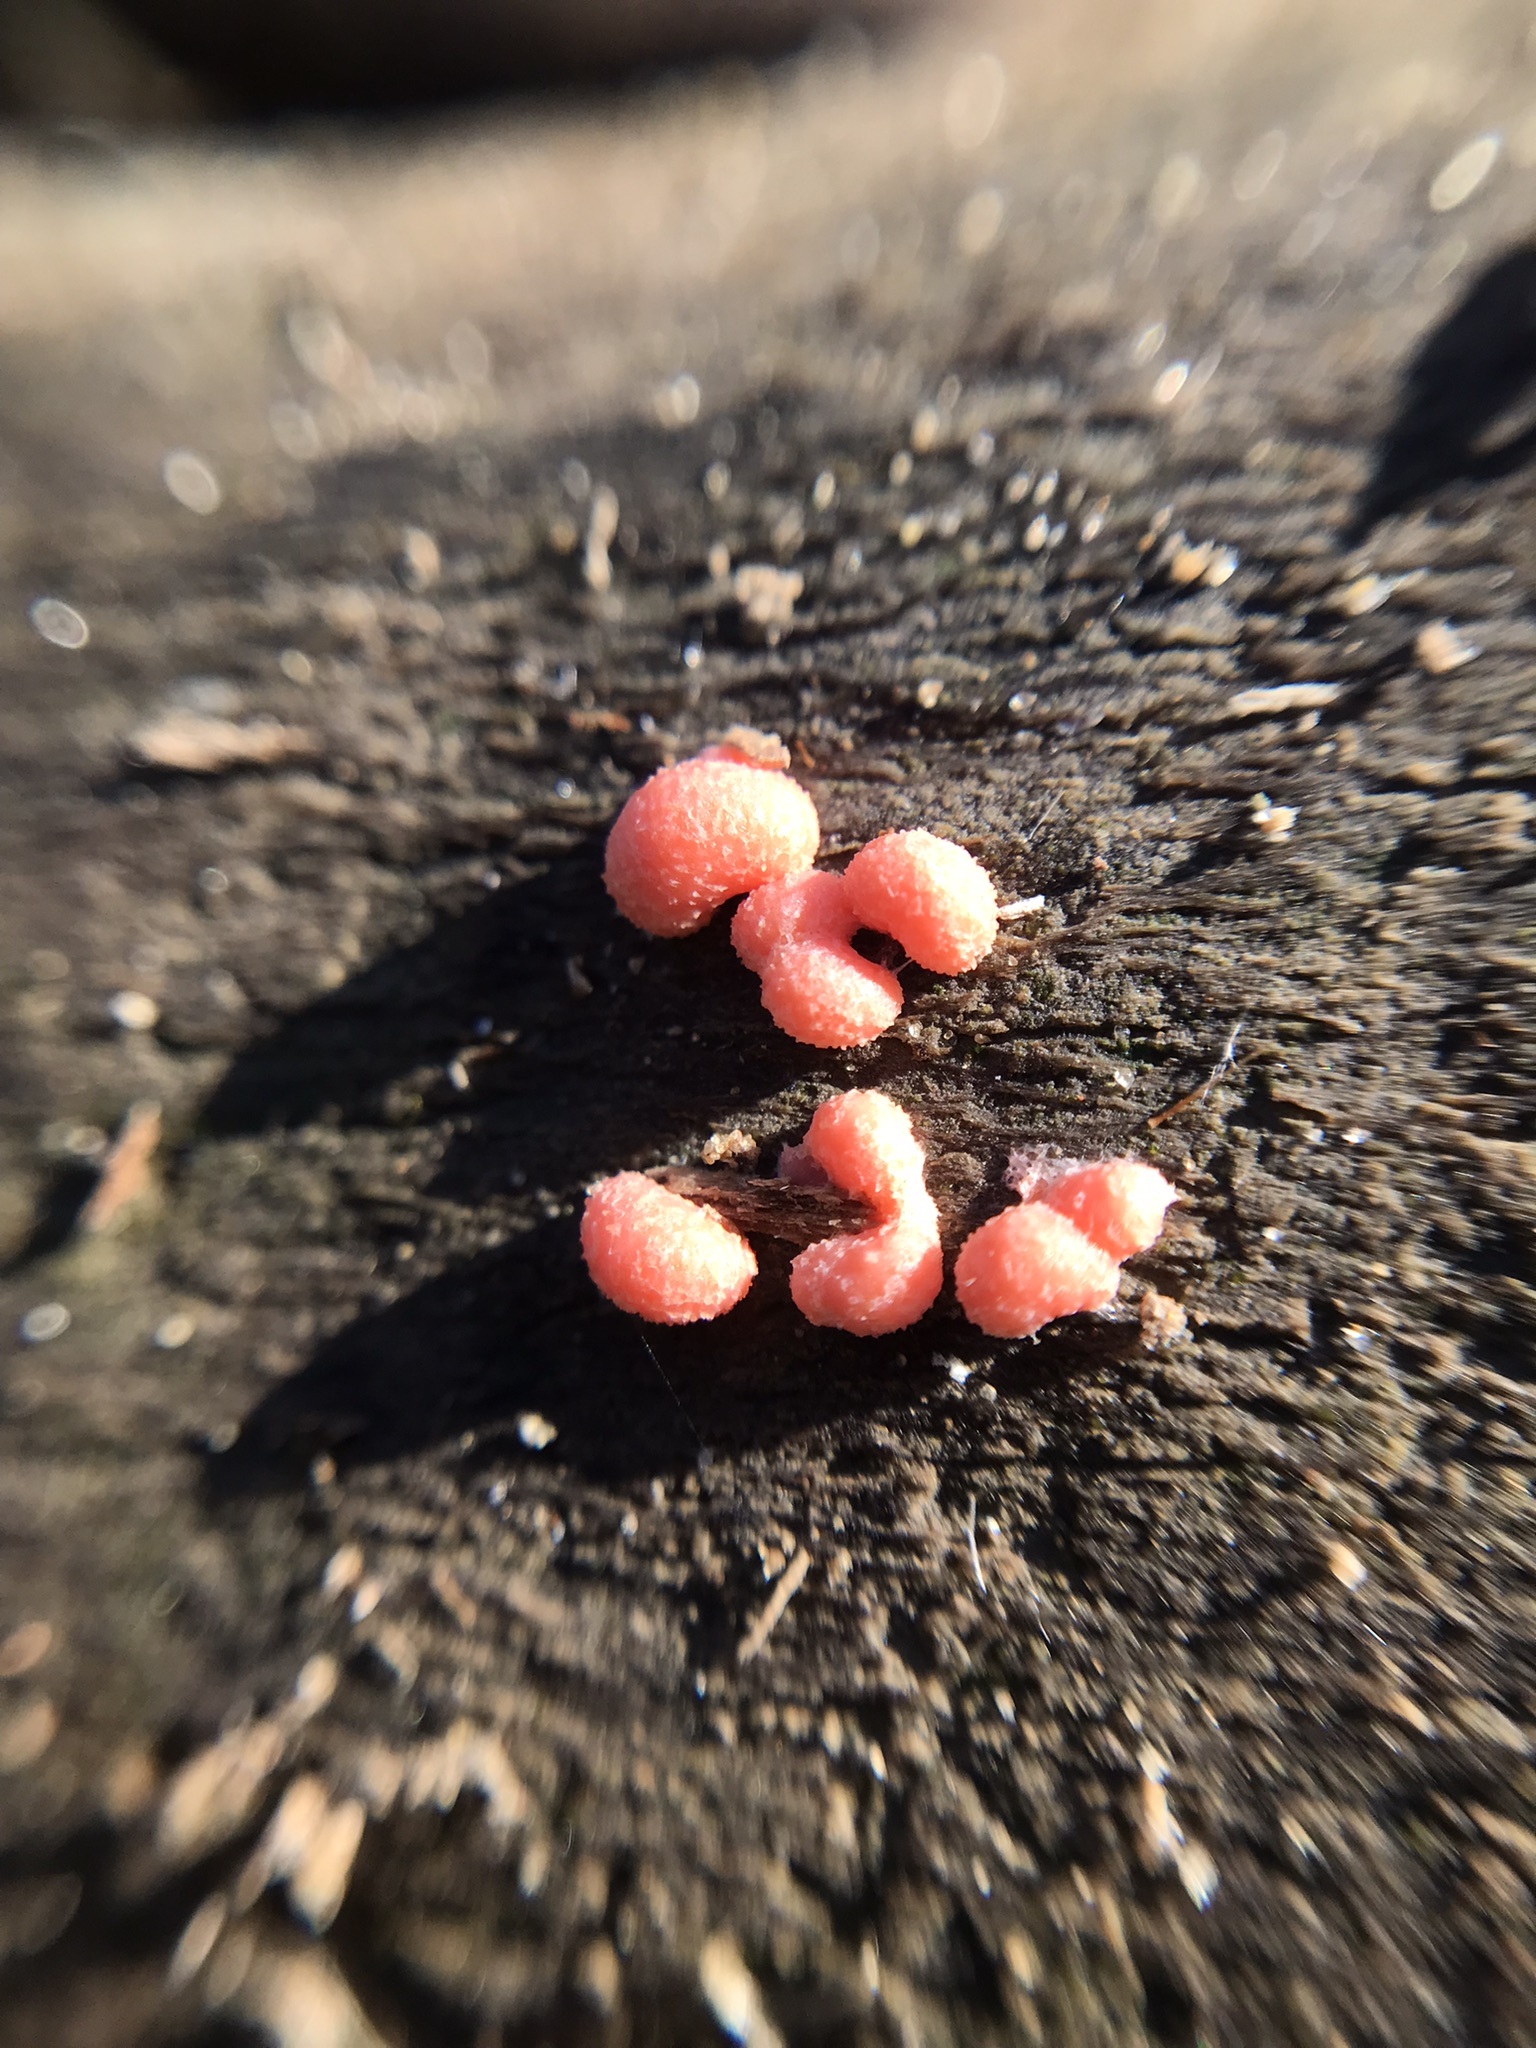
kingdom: Protozoa
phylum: Mycetozoa
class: Myxomycetes
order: Cribrariales
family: Tubiferaceae
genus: Tubifera
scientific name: Tubifera ferruginosa
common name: Red raspberry slime mold
